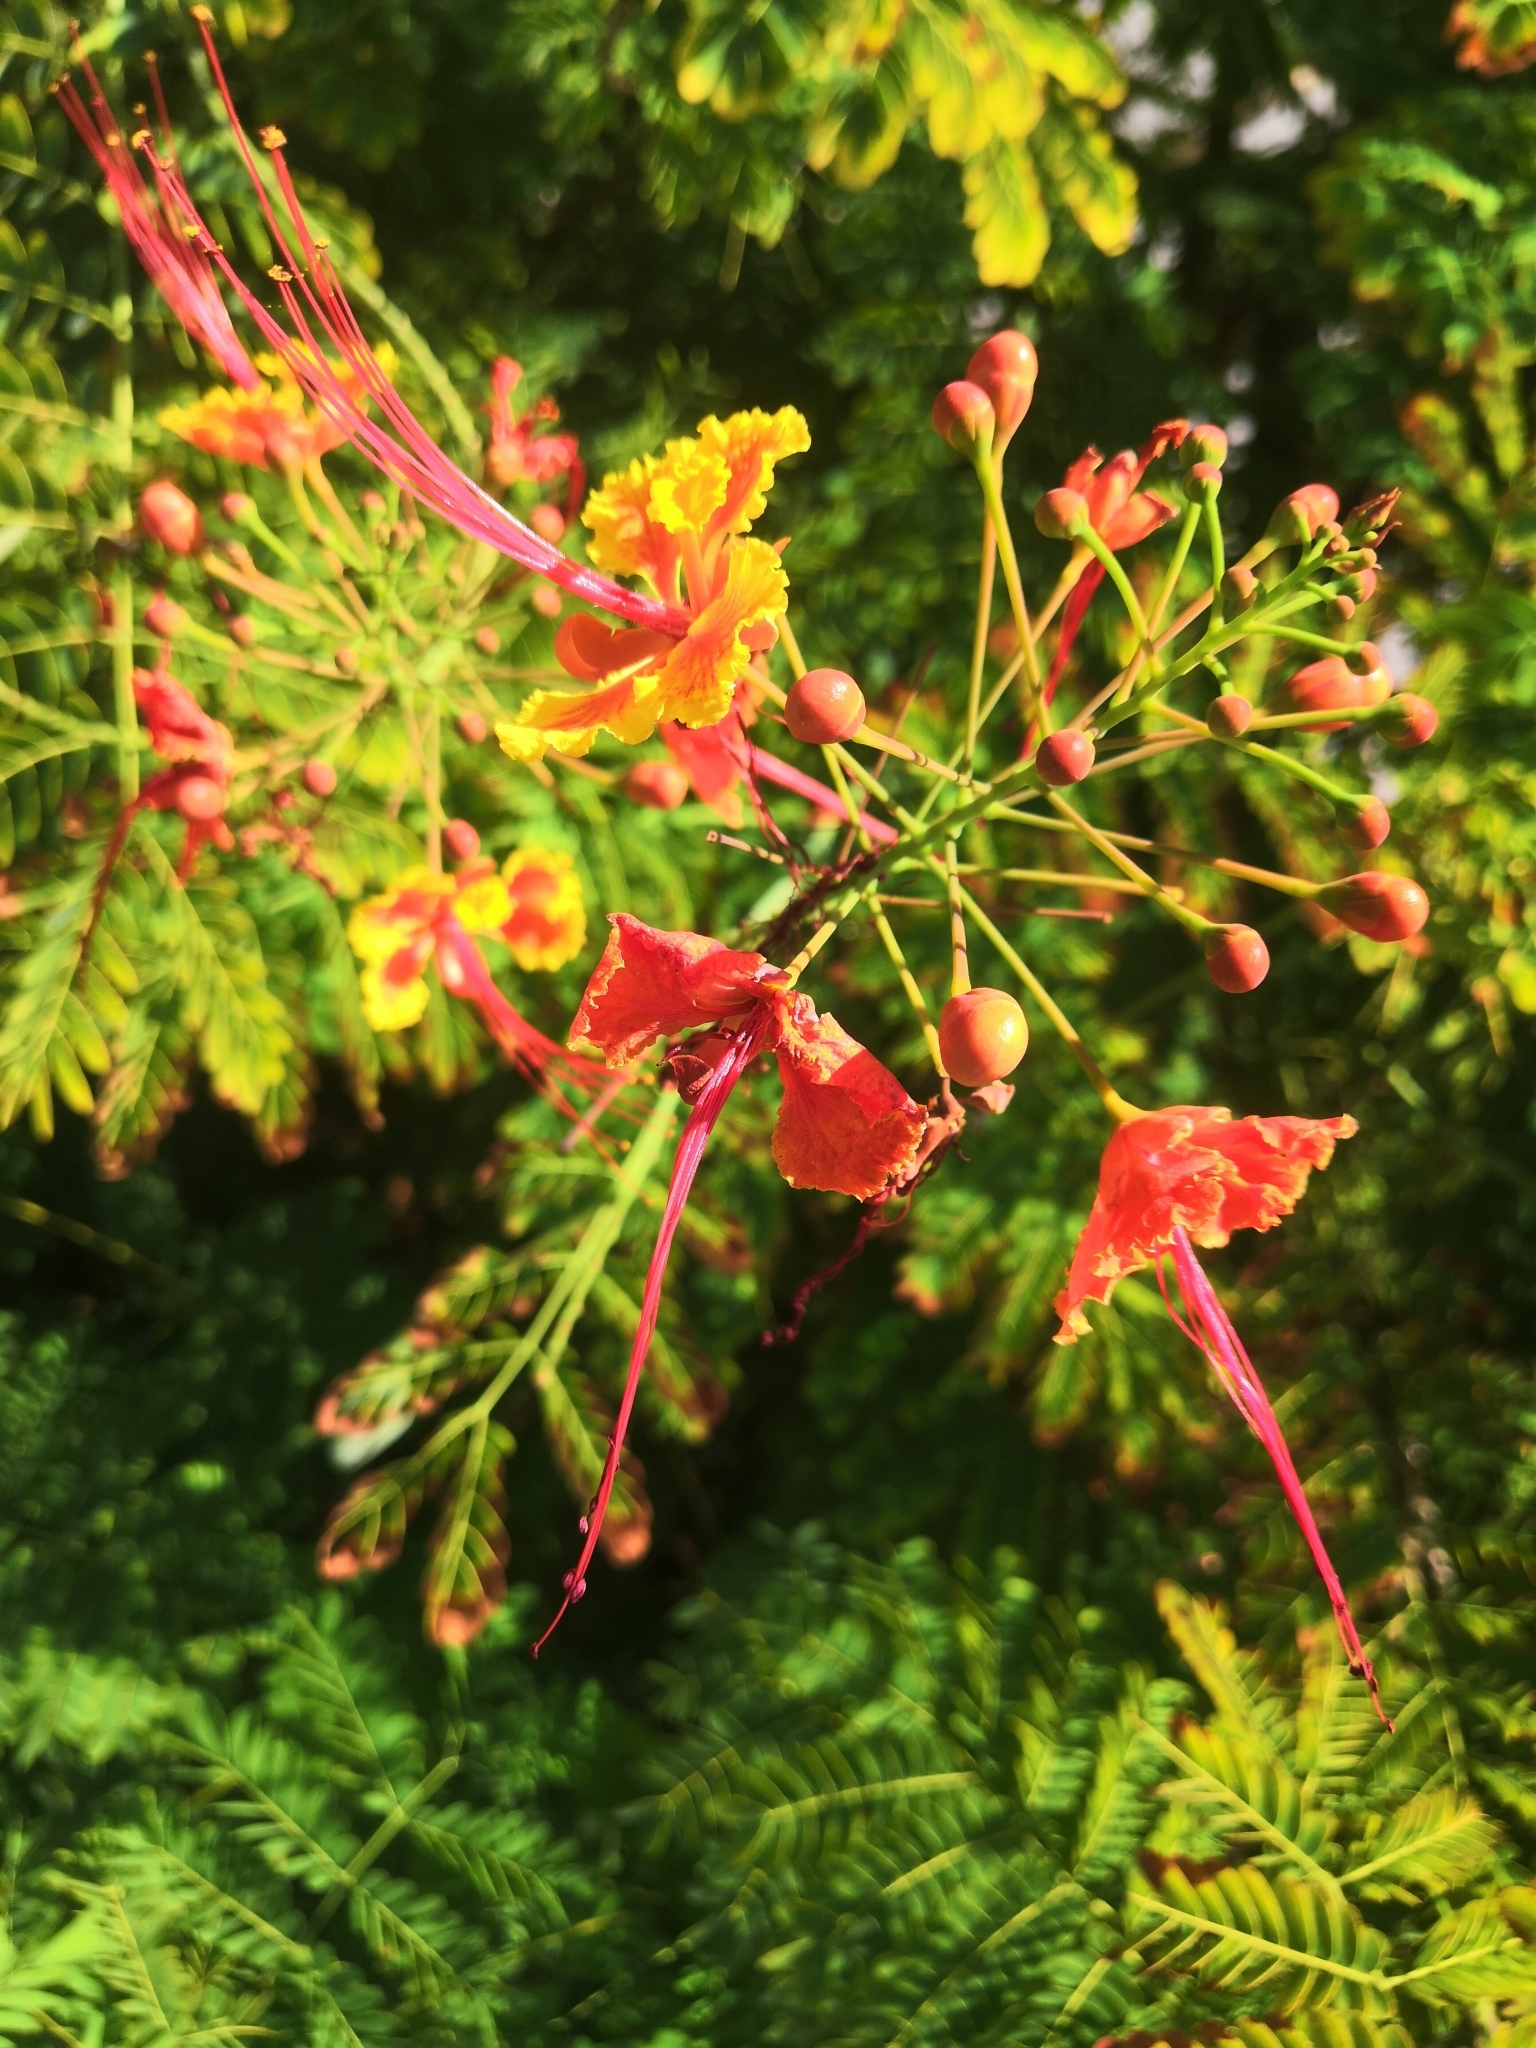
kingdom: Plantae
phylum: Tracheophyta
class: Magnoliopsida
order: Fabales
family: Fabaceae
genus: Caesalpinia
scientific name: Caesalpinia pulcherrima
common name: Pride-of-barbados
